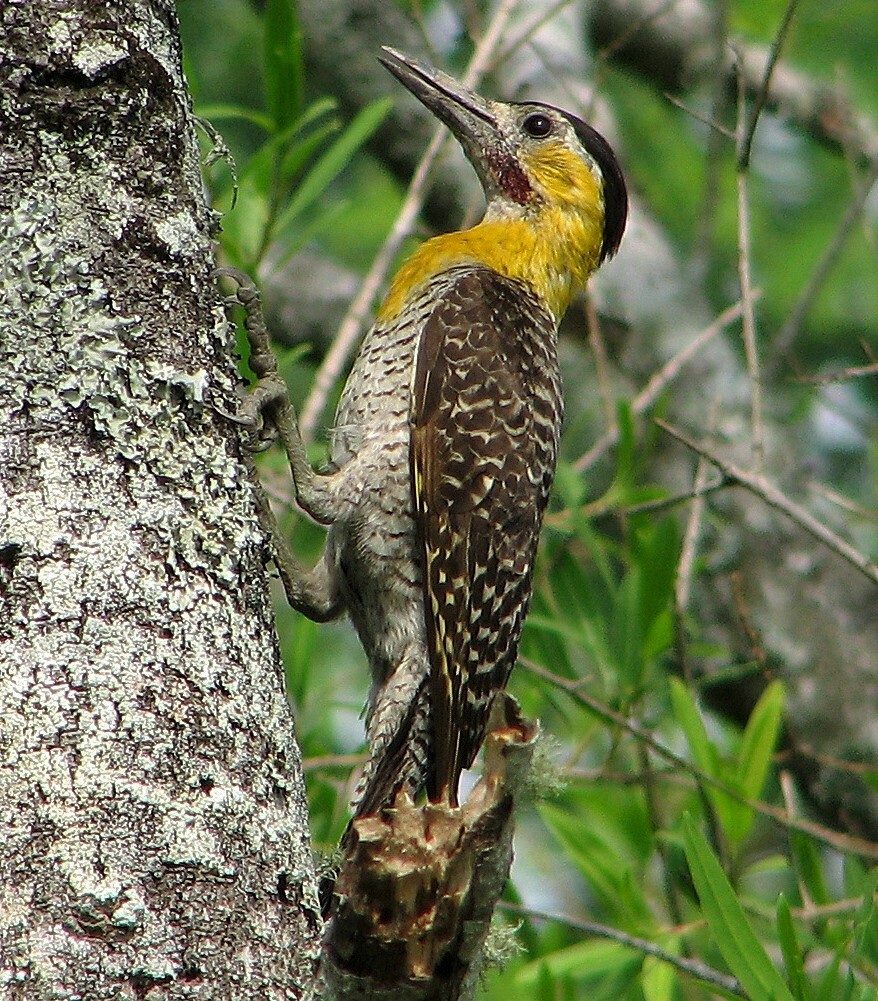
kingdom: Animalia
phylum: Chordata
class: Aves
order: Piciformes
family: Picidae
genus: Colaptes
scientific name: Colaptes campestris
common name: Campo flicker
